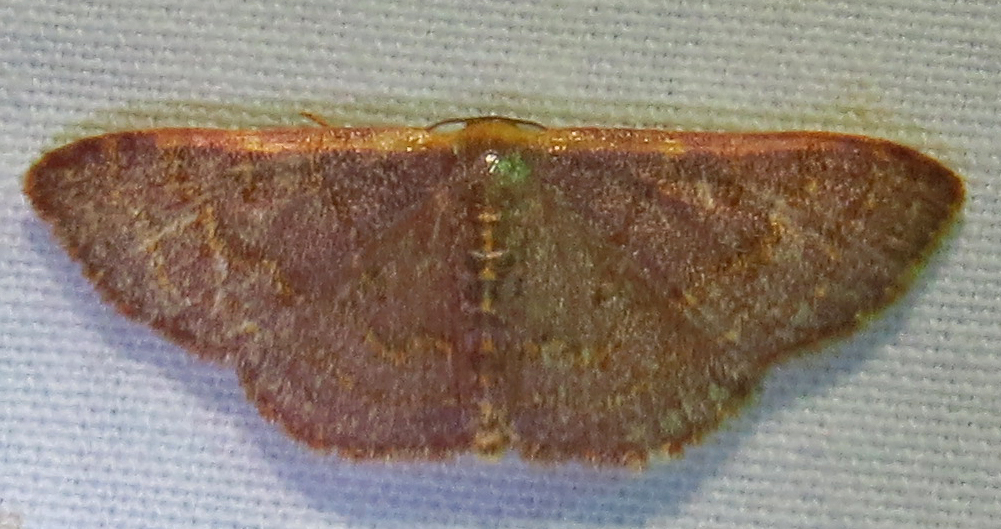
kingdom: Animalia
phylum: Arthropoda
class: Insecta
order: Lepidoptera
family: Geometridae
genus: Leptostales
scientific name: Leptostales pannaria
